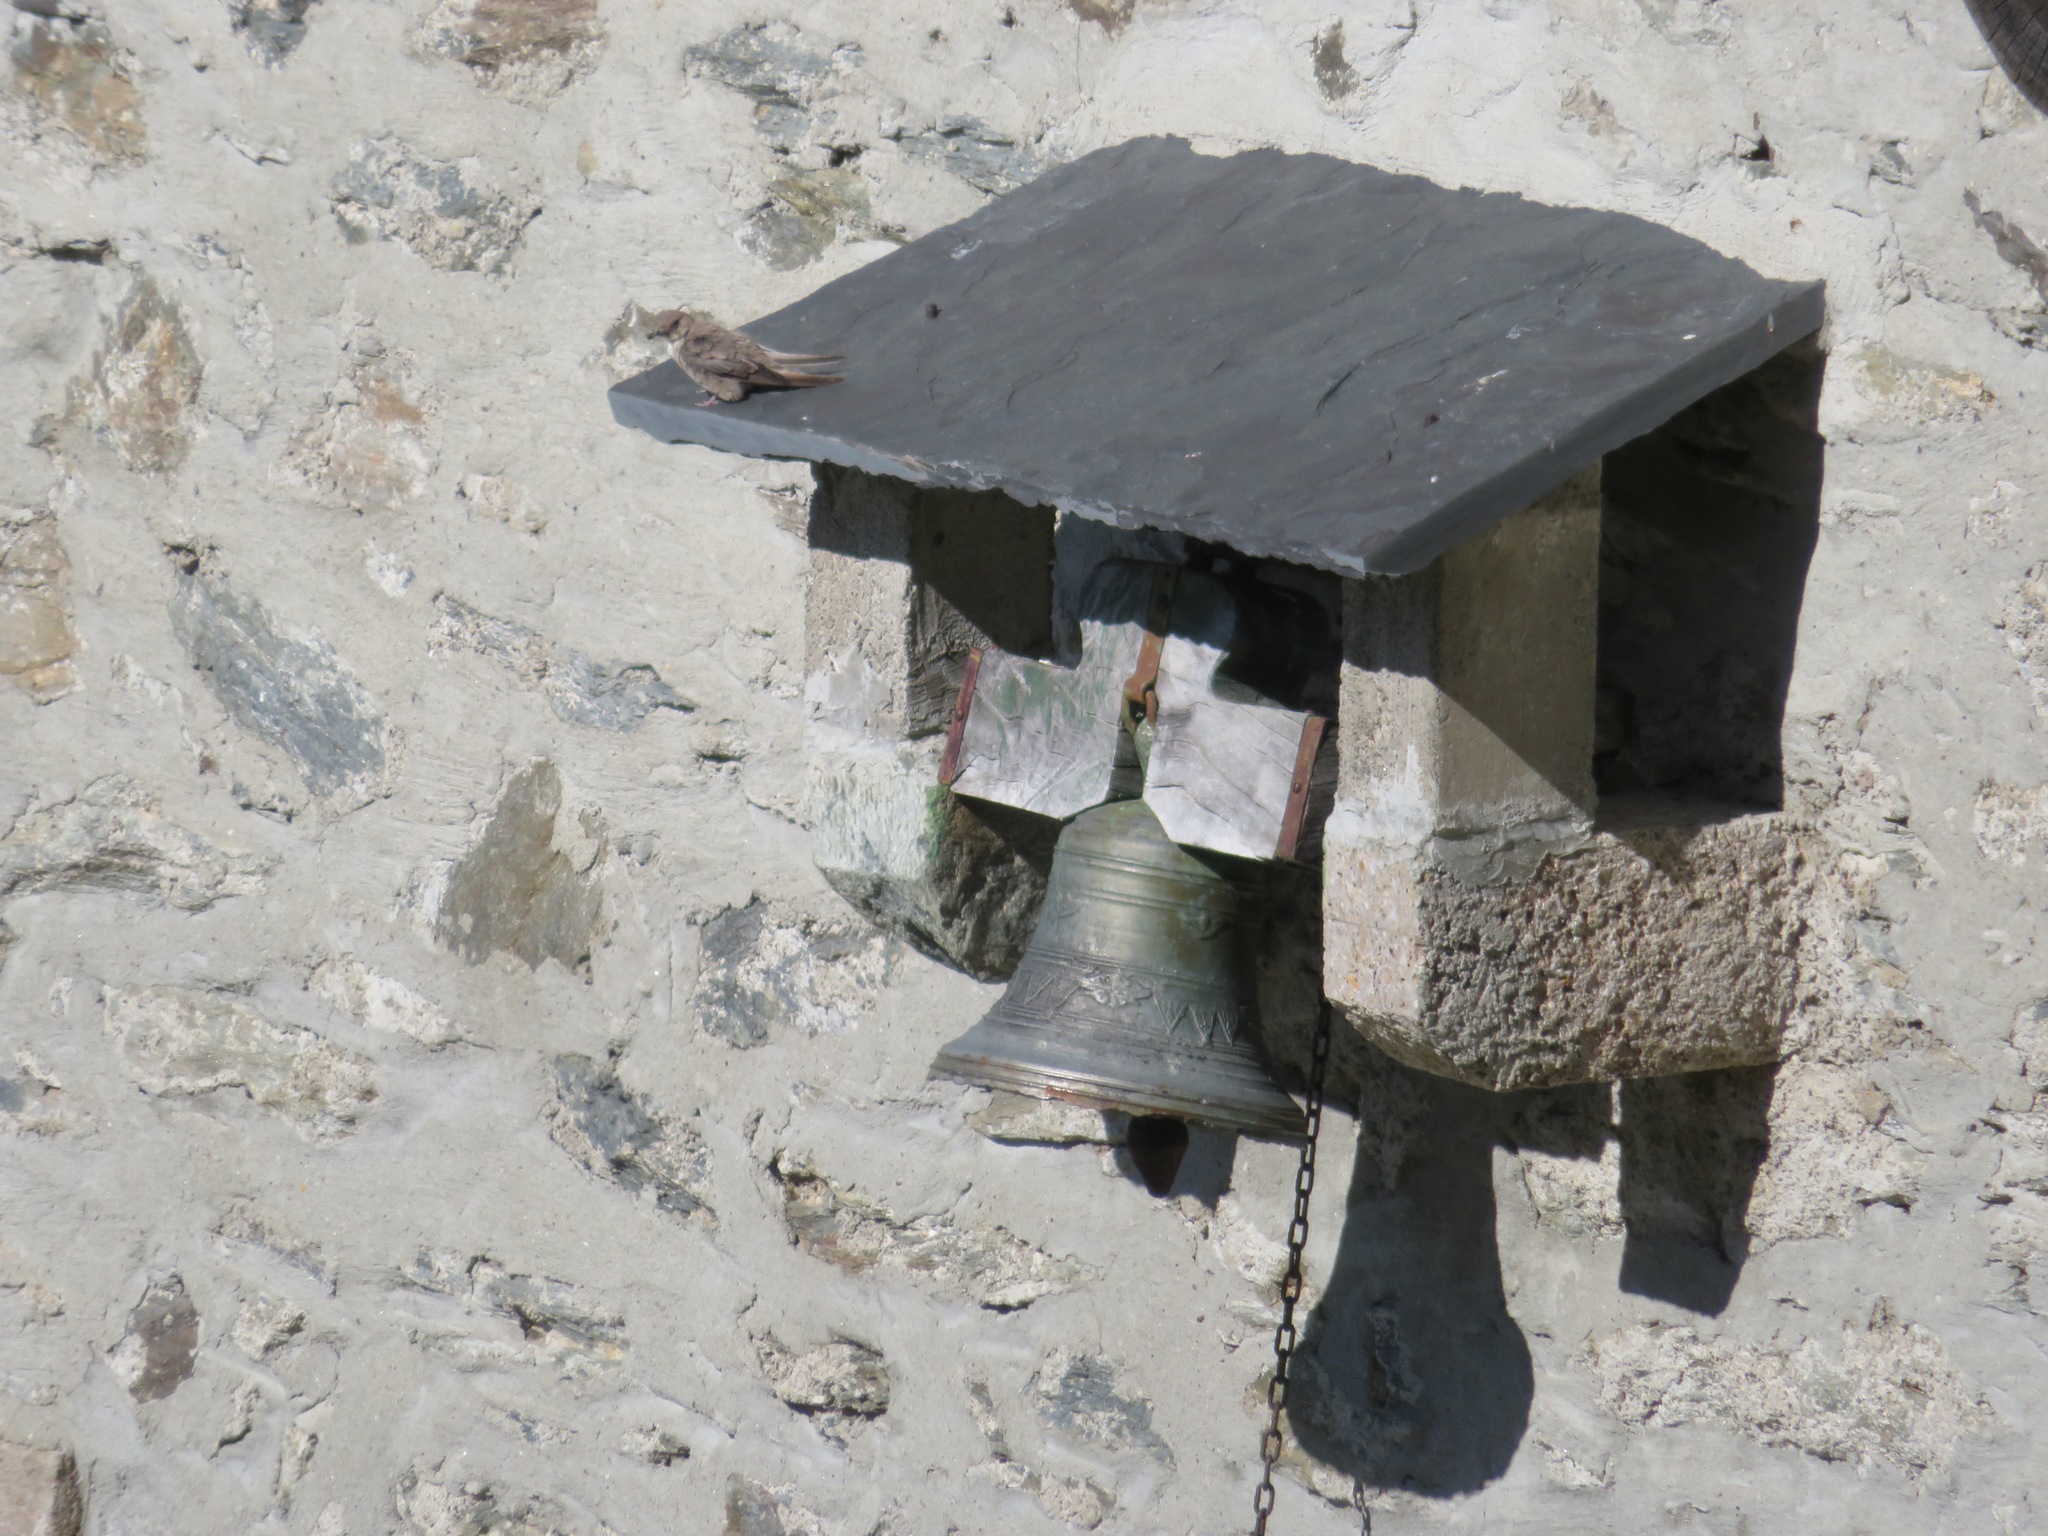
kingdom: Animalia
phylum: Chordata
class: Aves
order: Passeriformes
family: Hirundinidae
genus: Ptyonoprogne
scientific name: Ptyonoprogne rupestris
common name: Eurasian crag martin
